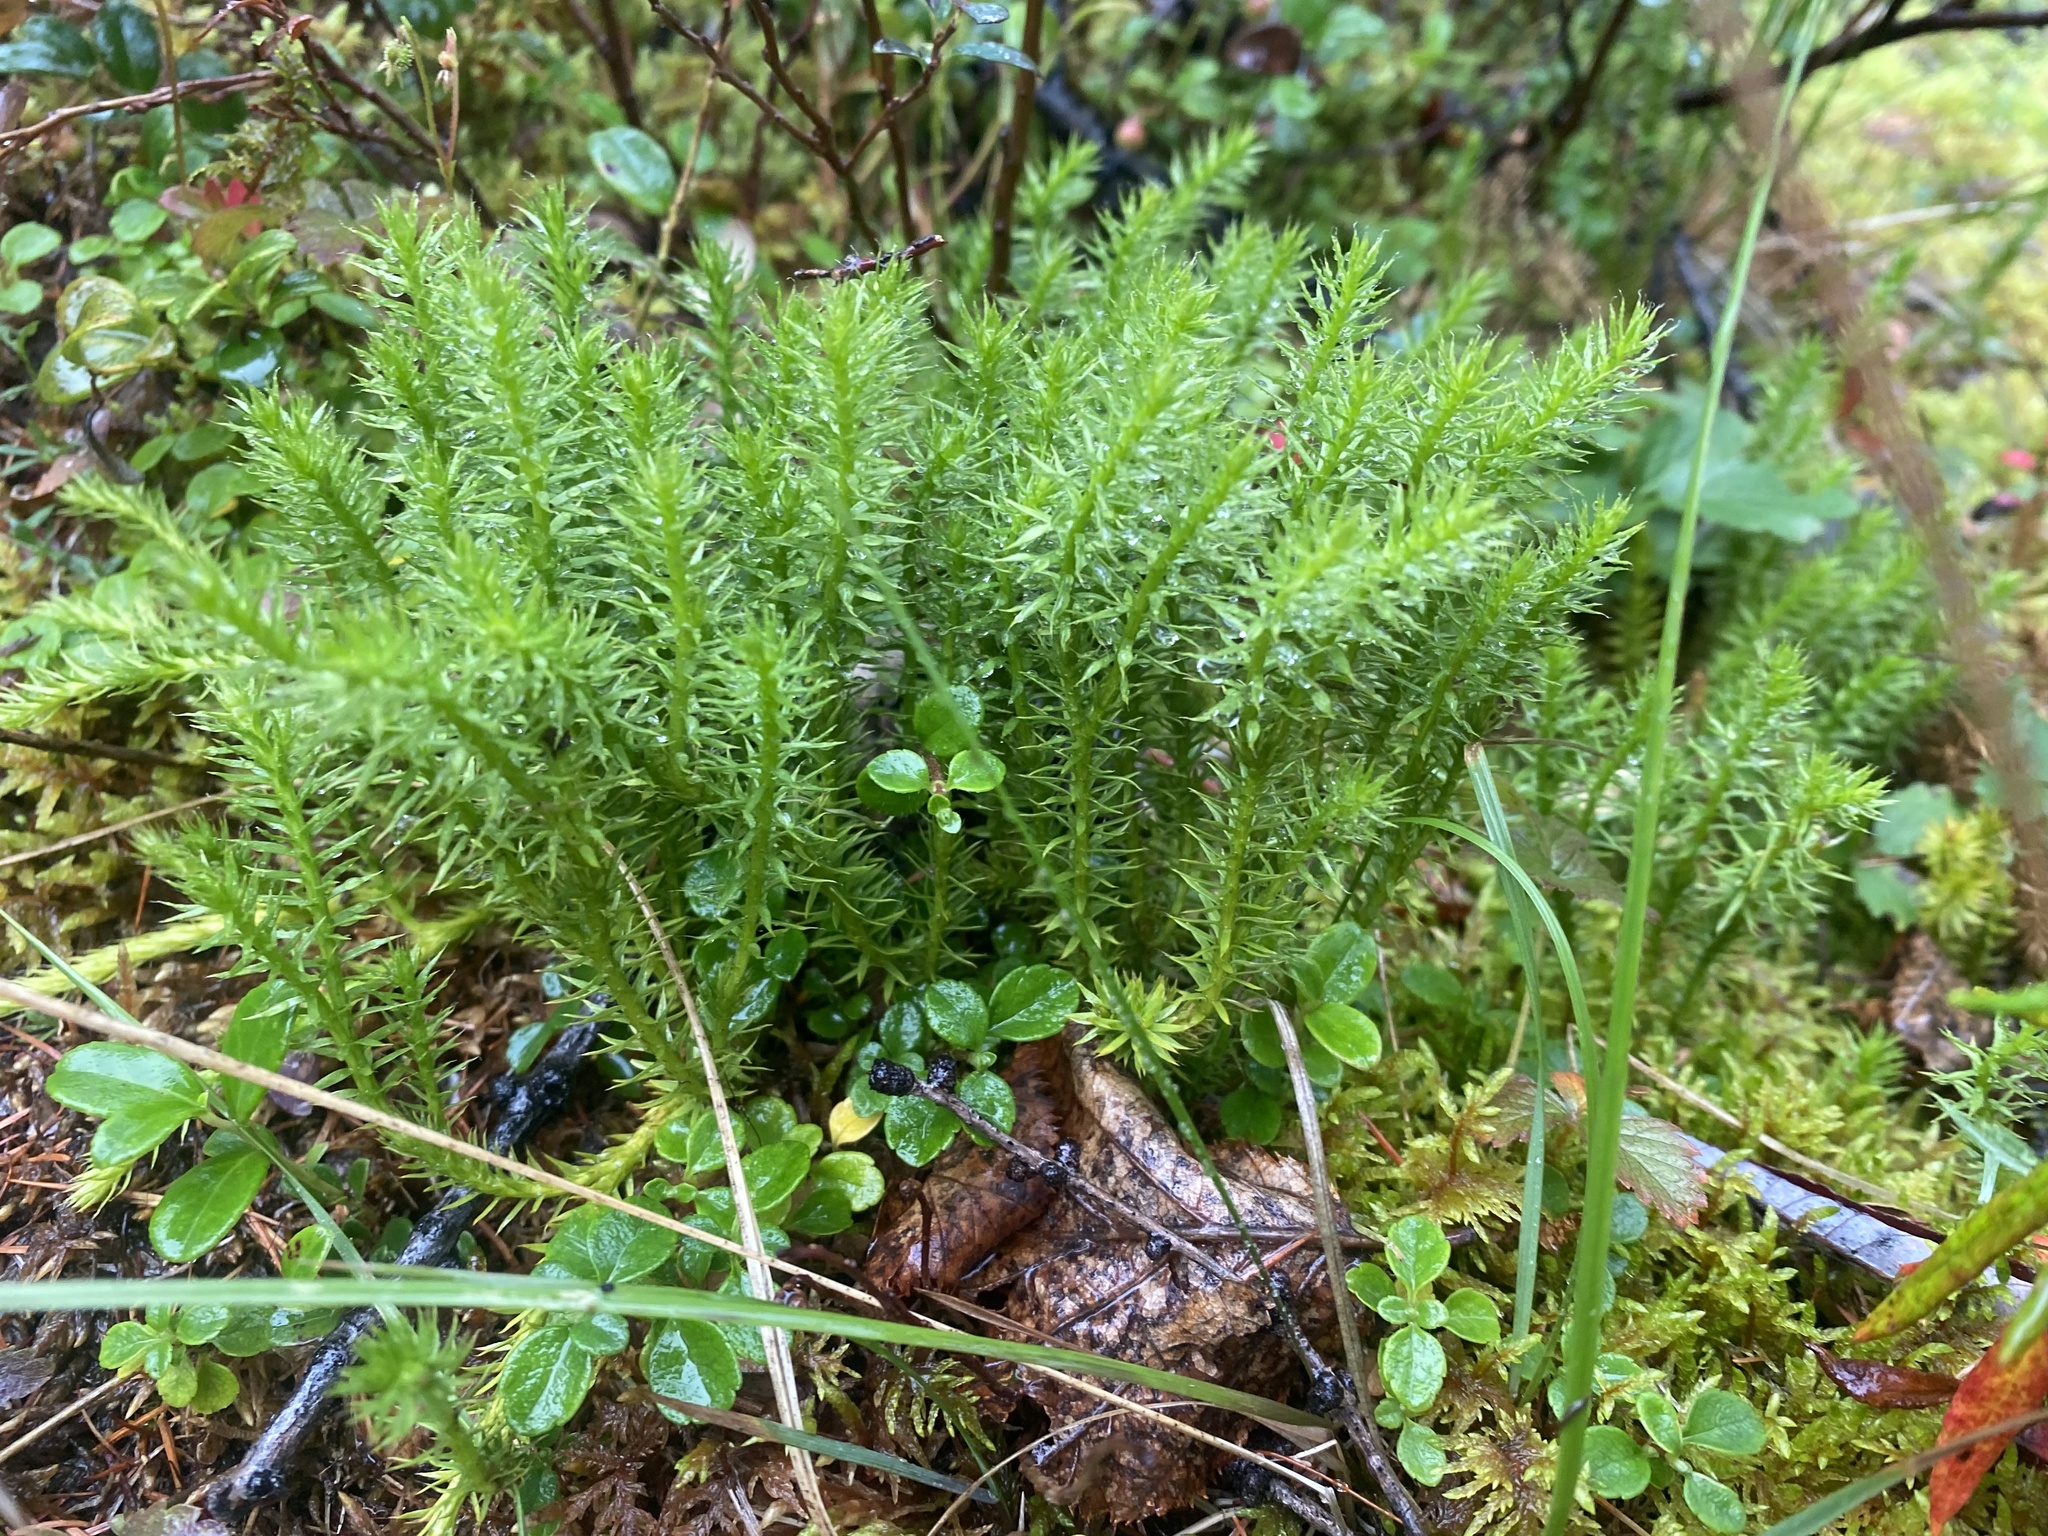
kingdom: Plantae
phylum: Tracheophyta
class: Lycopodiopsida
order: Lycopodiales
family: Lycopodiaceae
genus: Spinulum
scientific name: Spinulum annotinum
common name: Interrupted club-moss
